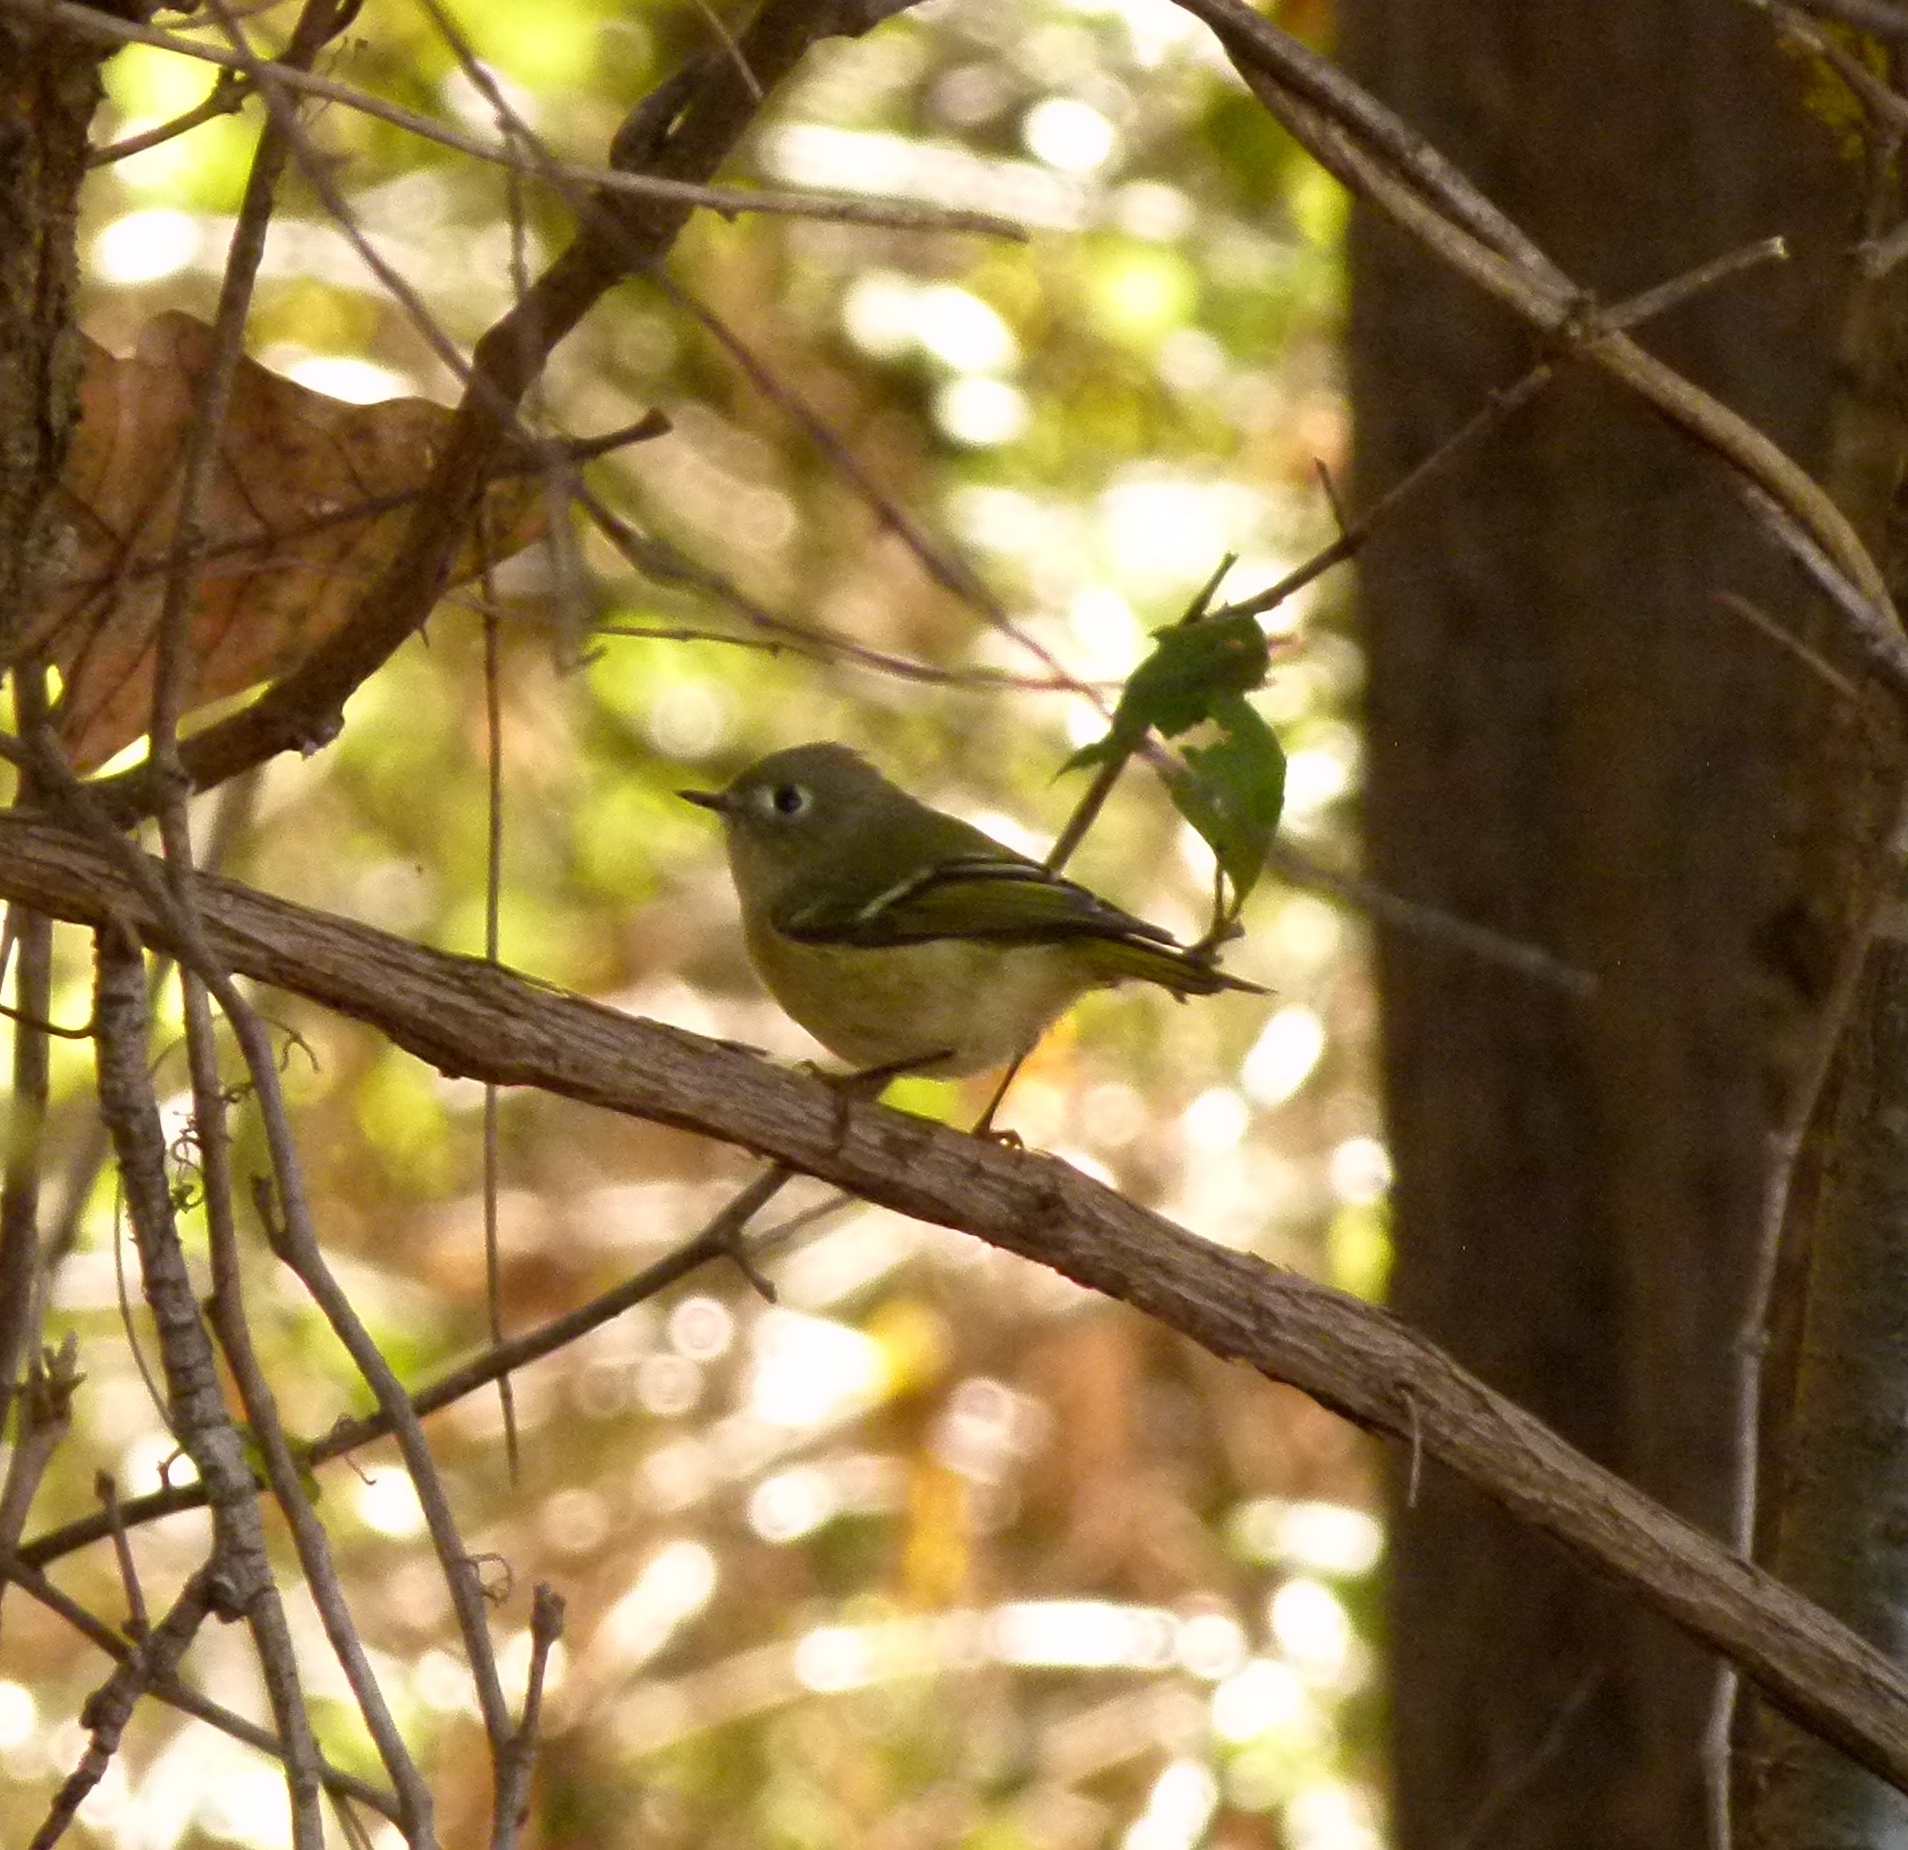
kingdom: Animalia
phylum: Chordata
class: Aves
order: Passeriformes
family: Regulidae
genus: Regulus
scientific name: Regulus calendula
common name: Ruby-crowned kinglet
